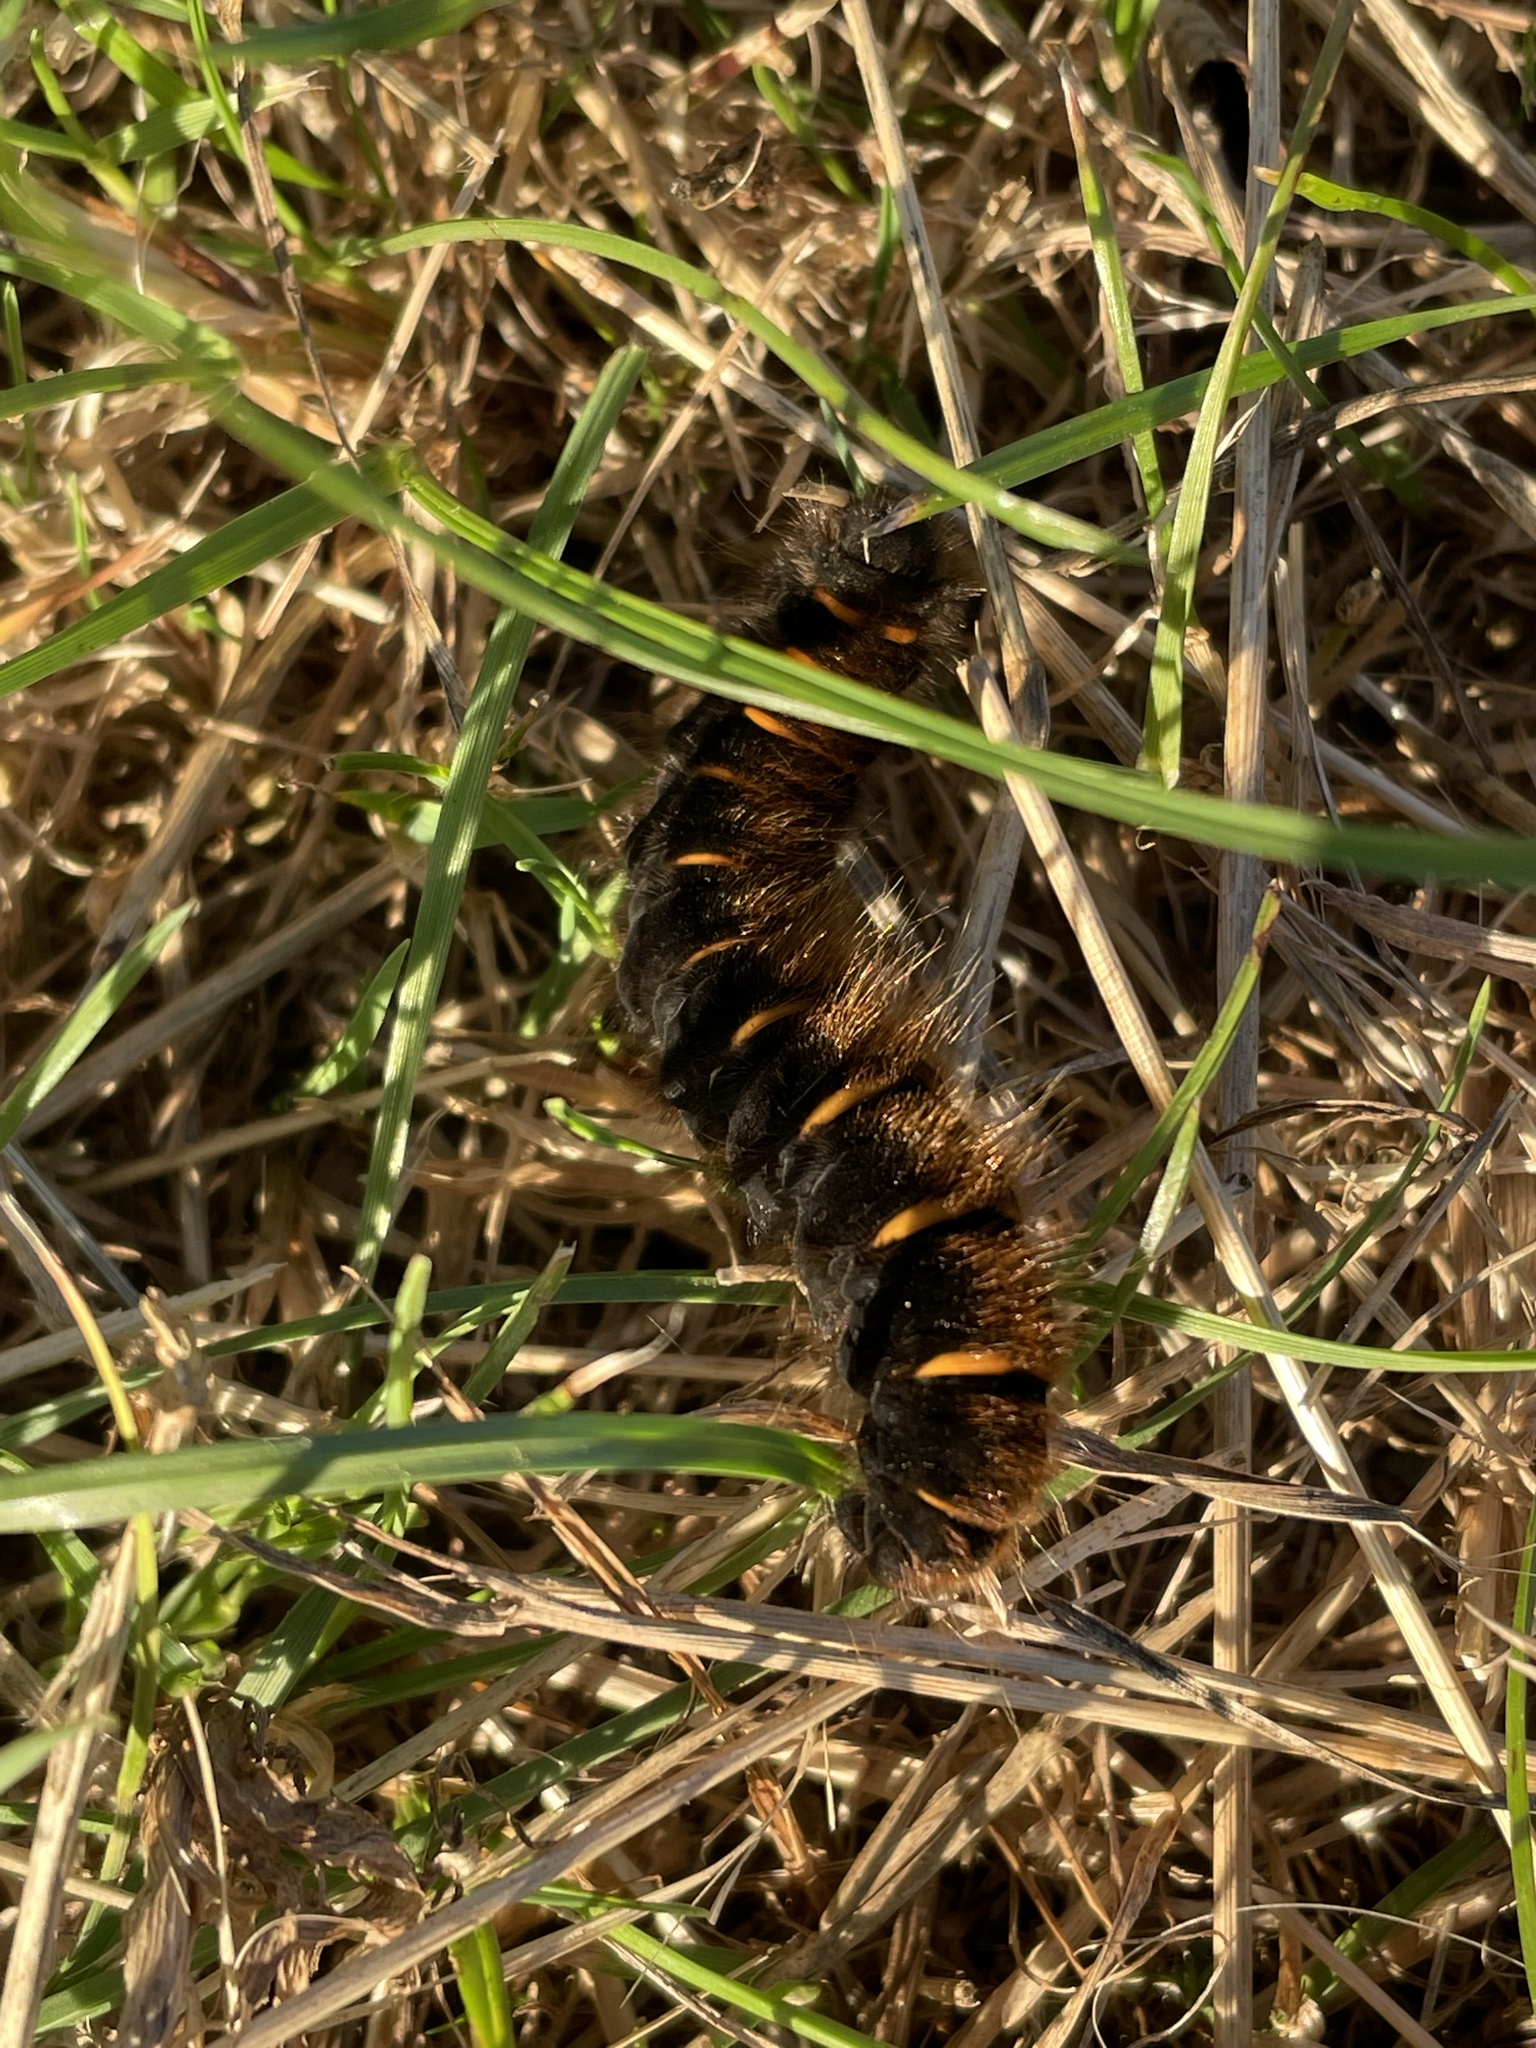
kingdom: Animalia
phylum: Arthropoda
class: Insecta
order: Lepidoptera
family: Lasiocampidae
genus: Macrothylacia
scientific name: Macrothylacia rubi
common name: Fox moth
